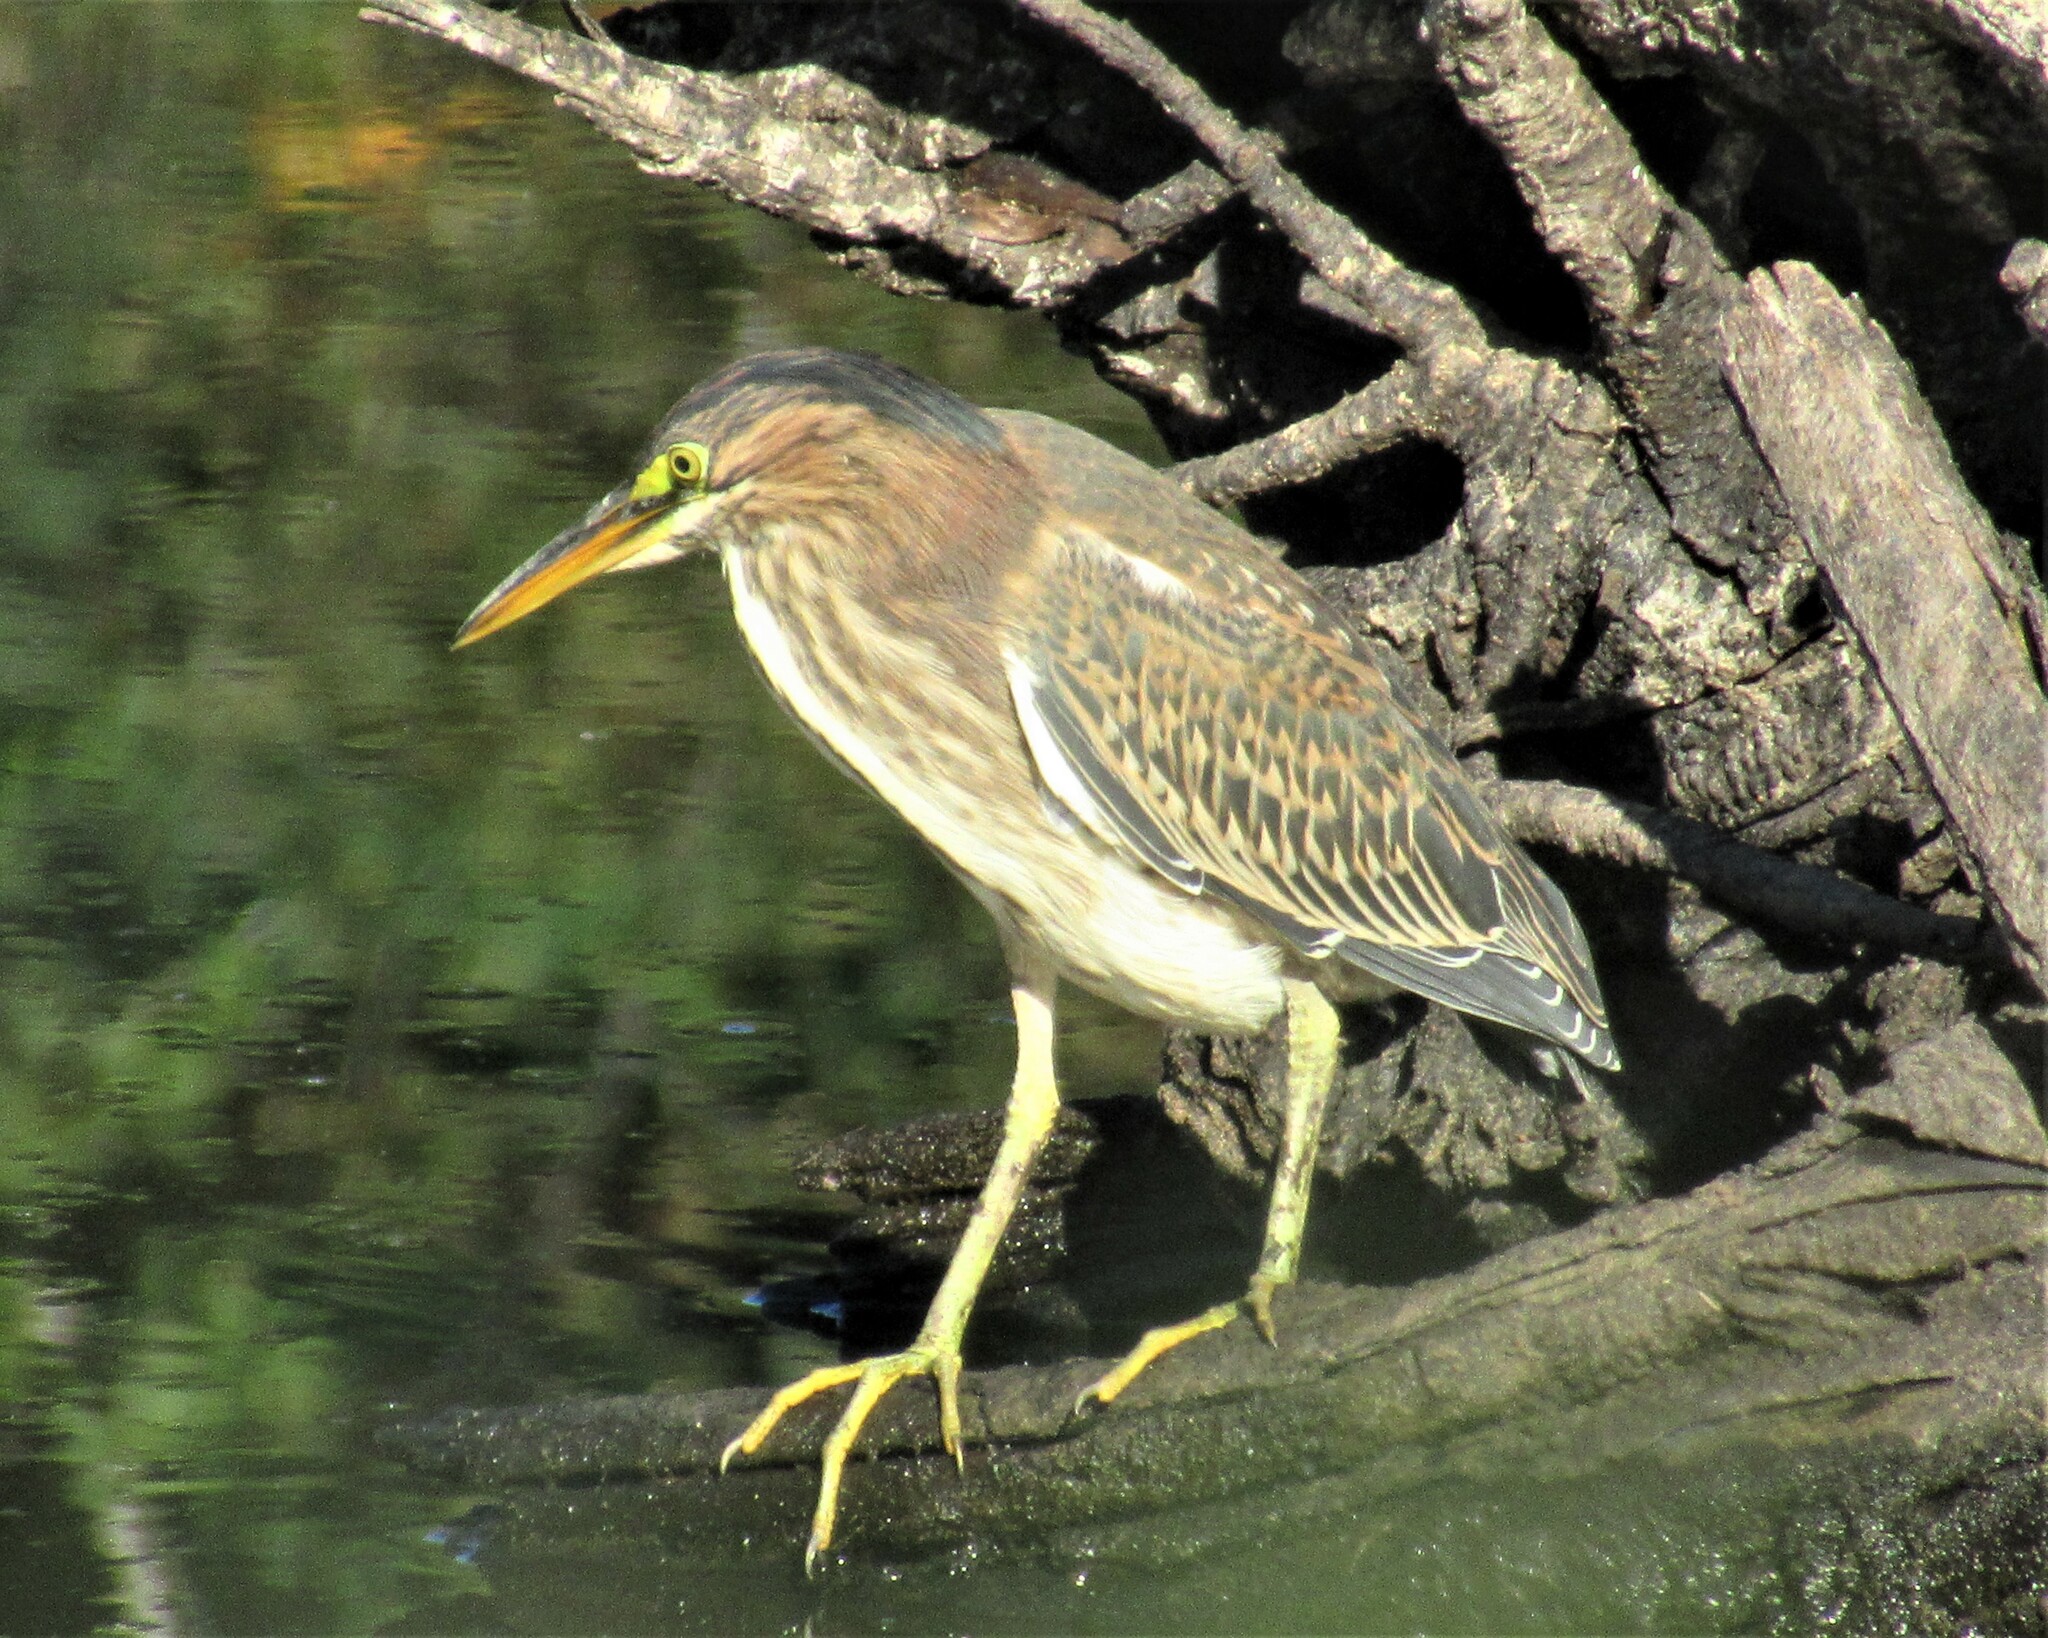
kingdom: Animalia
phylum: Chordata
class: Aves
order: Pelecaniformes
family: Ardeidae
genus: Butorides
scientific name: Butorides virescens
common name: Green heron
